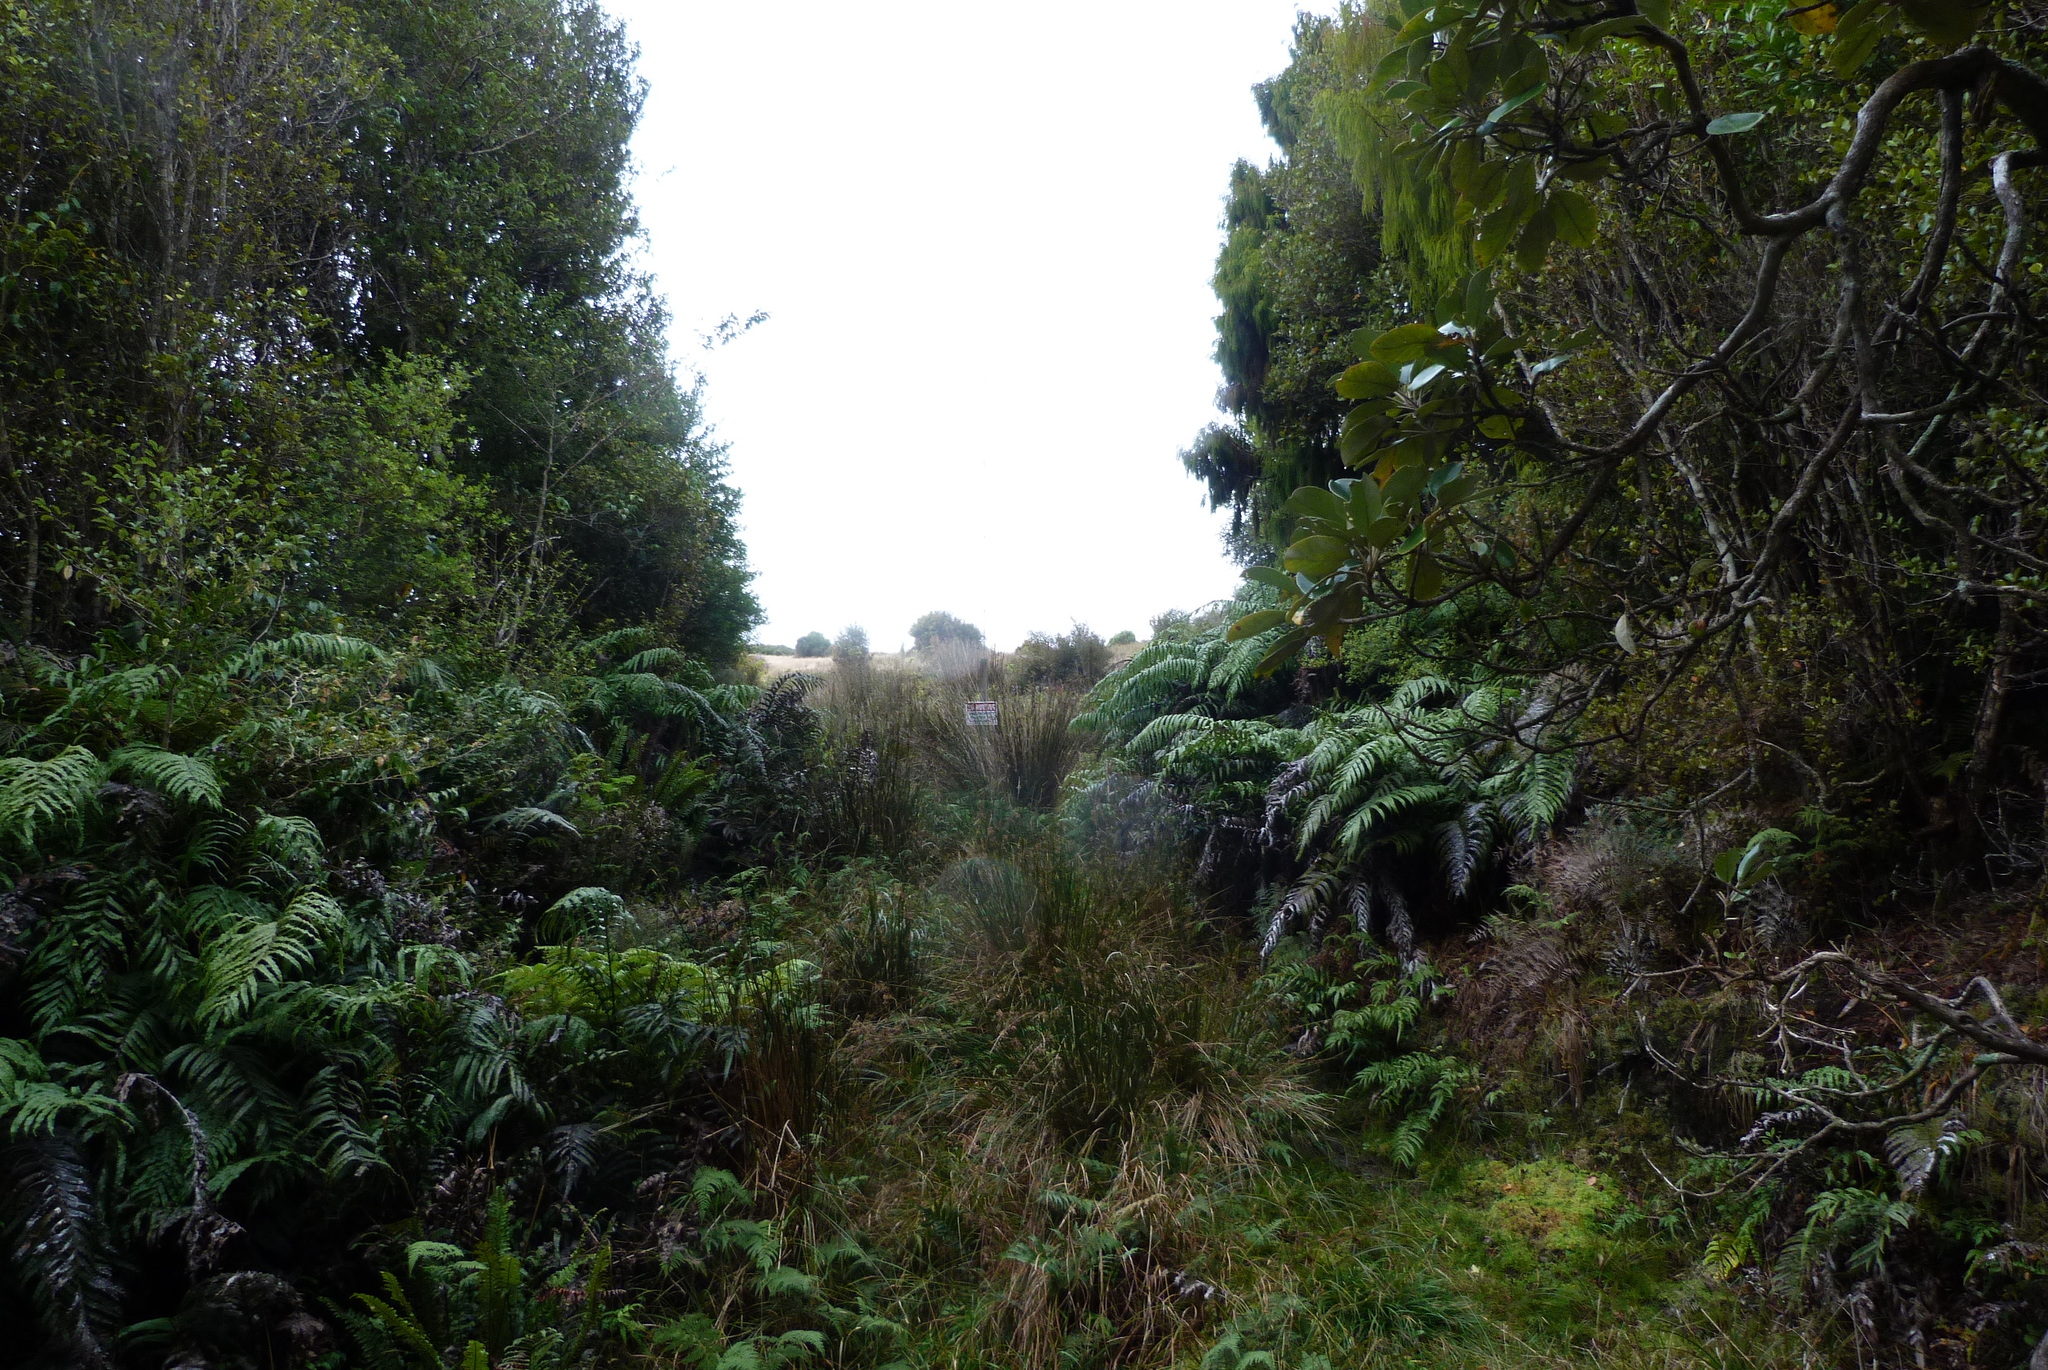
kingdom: Plantae
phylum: Tracheophyta
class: Pinopsida
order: Pinales
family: Podocarpaceae
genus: Dacrydium
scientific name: Dacrydium cupressinum
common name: Red pine
